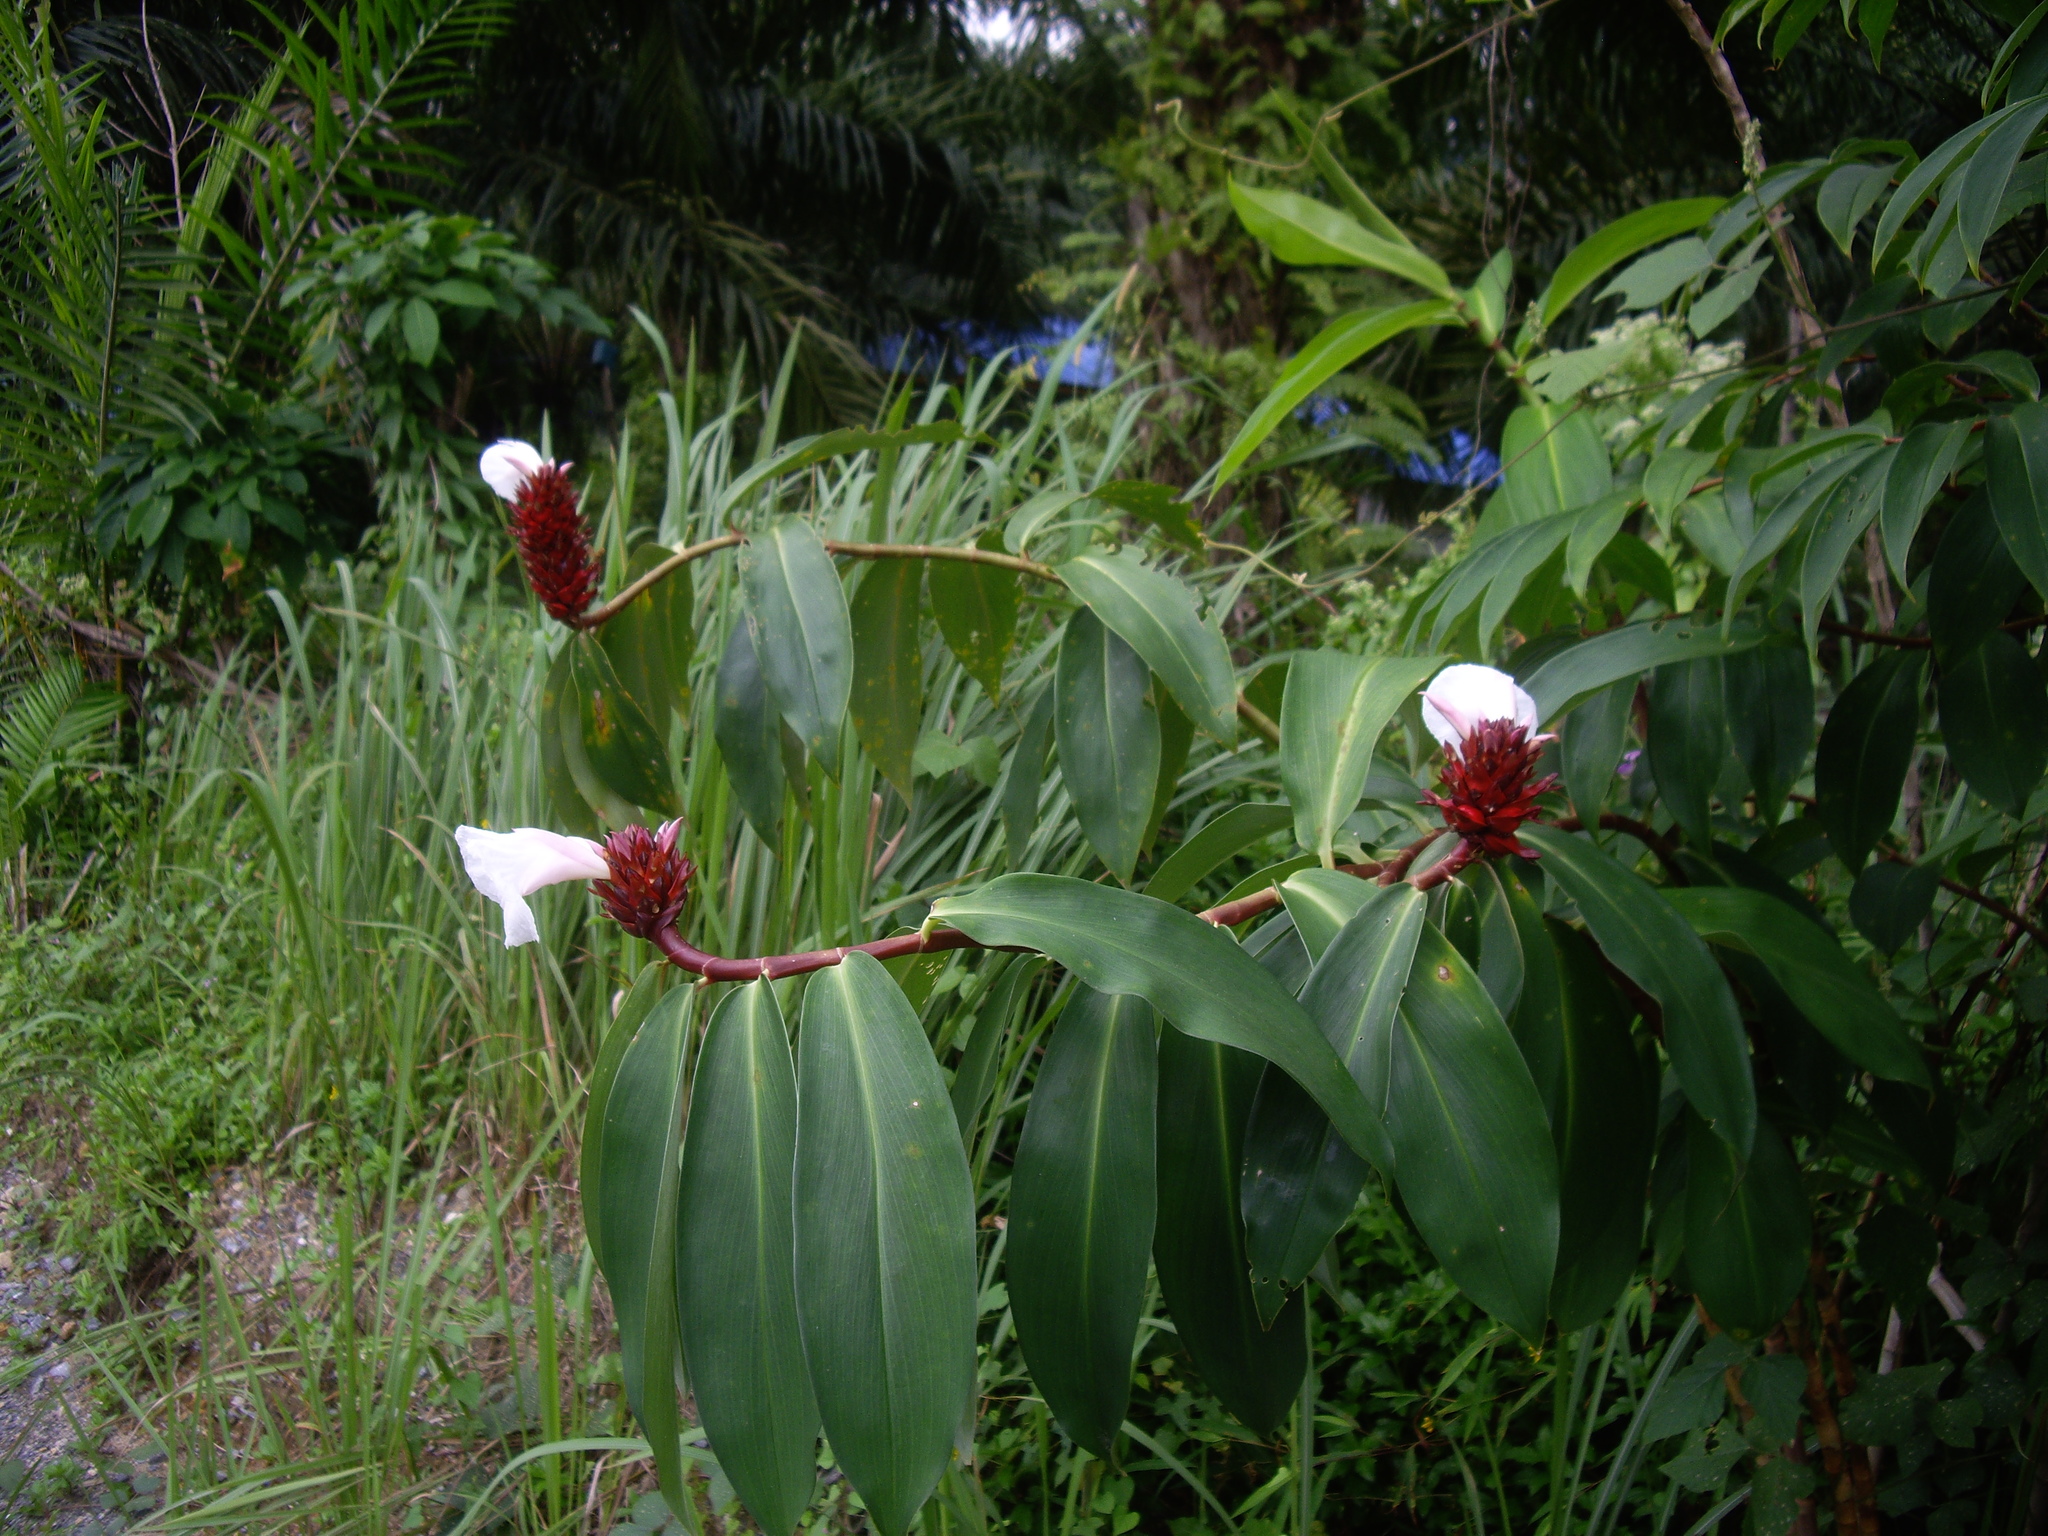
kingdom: Plantae
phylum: Tracheophyta
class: Liliopsida
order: Zingiberales
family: Costaceae
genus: Hellenia
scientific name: Hellenia speciosa
